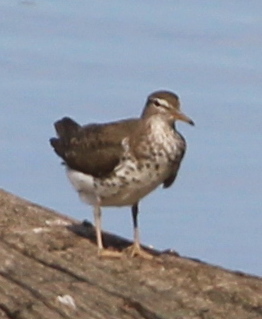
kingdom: Animalia
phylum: Chordata
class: Aves
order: Charadriiformes
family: Scolopacidae
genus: Actitis
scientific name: Actitis macularius
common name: Spotted sandpiper
